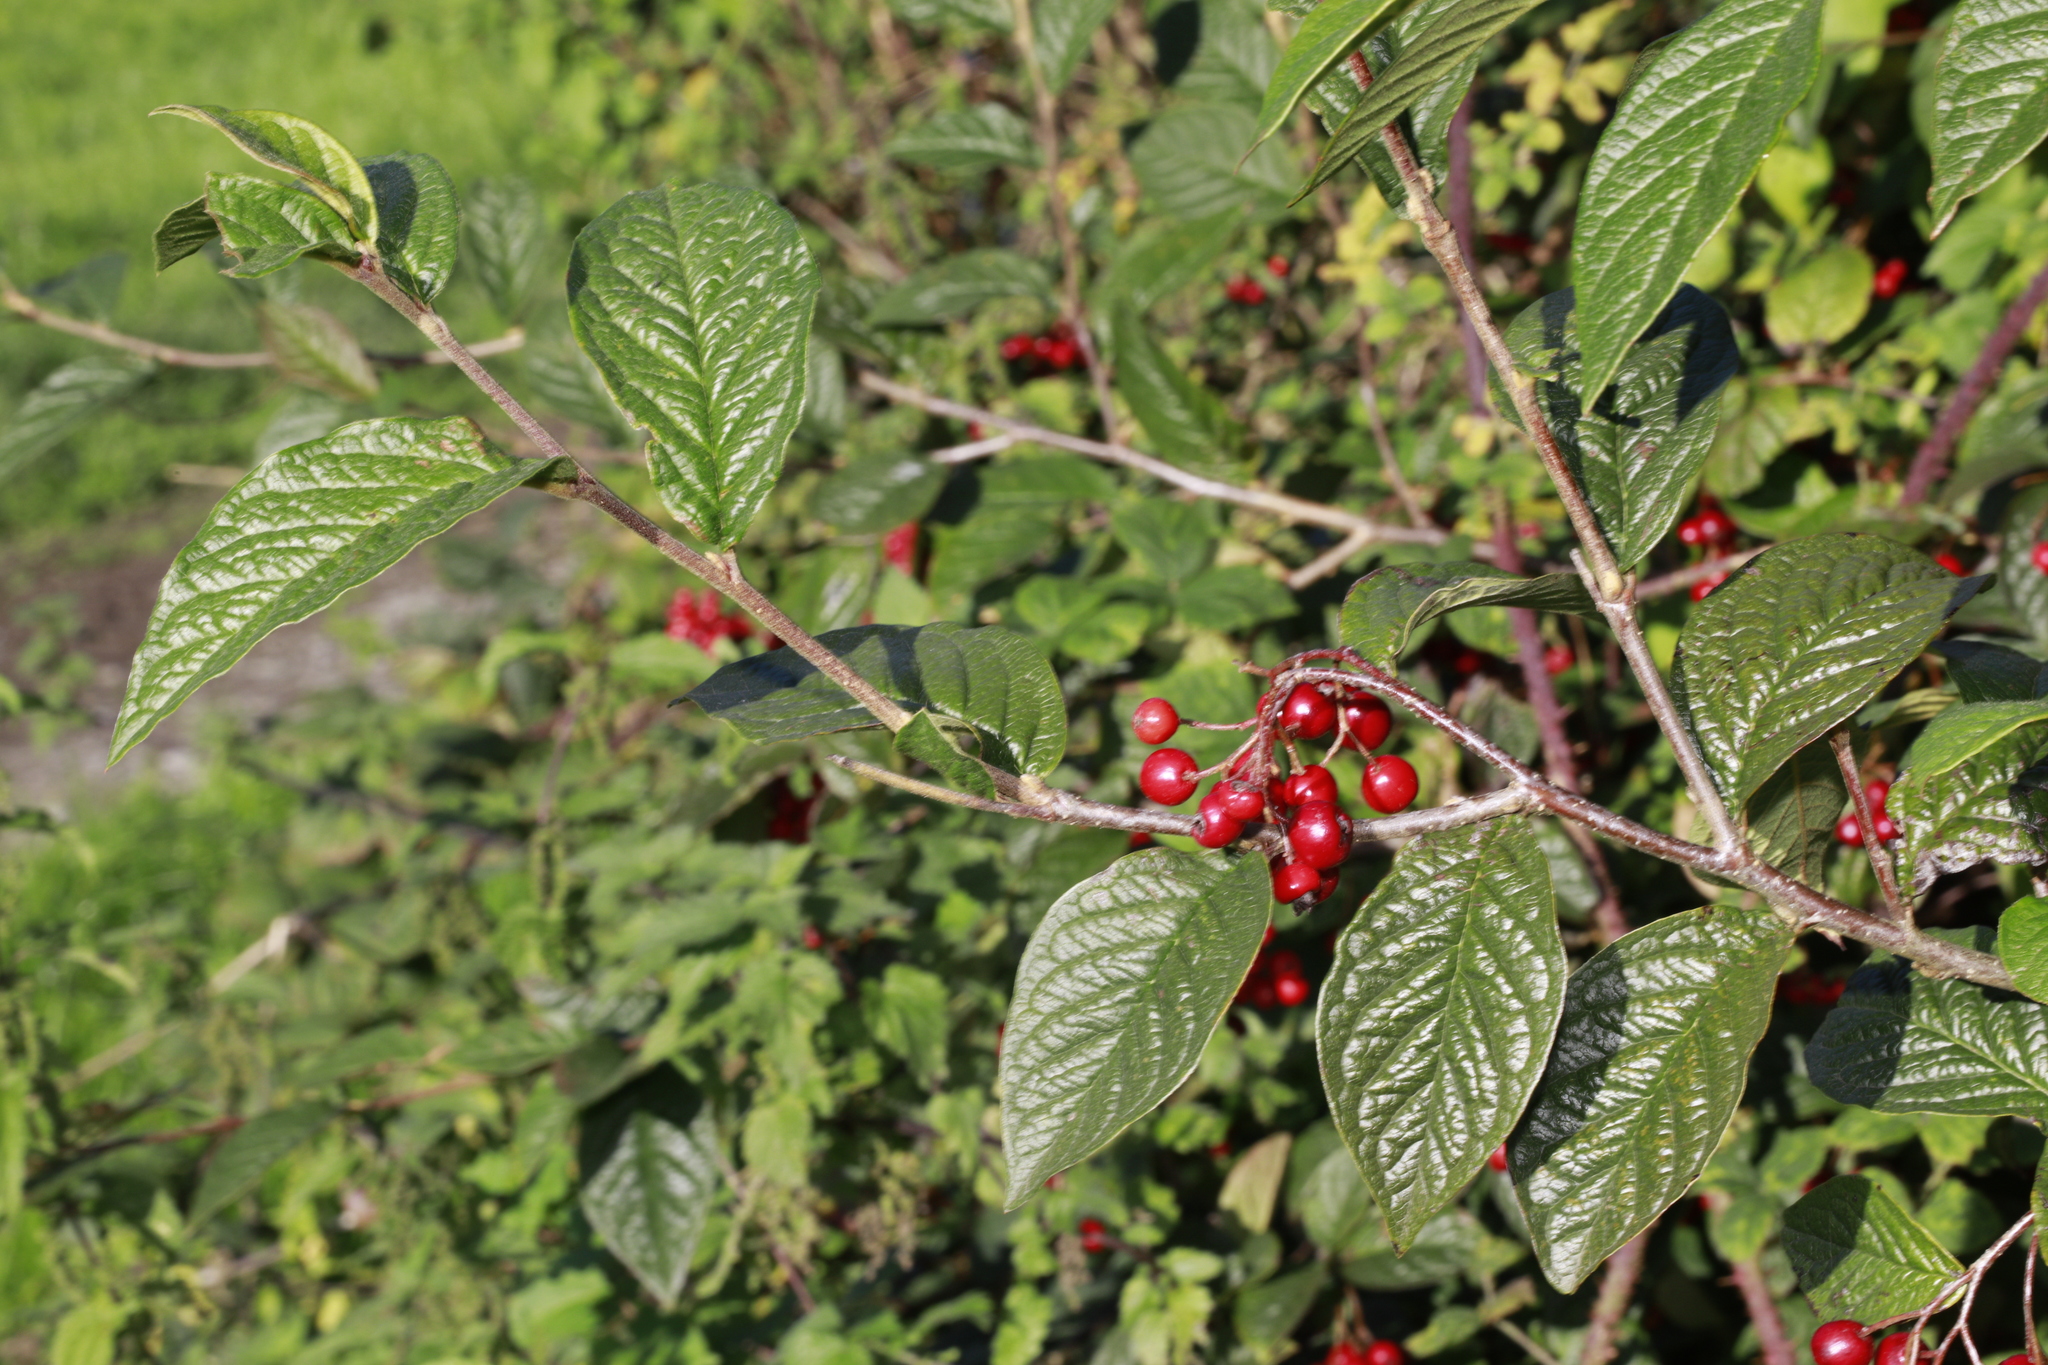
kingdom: Plantae
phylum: Tracheophyta
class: Magnoliopsida
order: Rosales
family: Rosaceae
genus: Cotoneaster
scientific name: Cotoneaster bullatus
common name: Hollyberry cotoneaster
